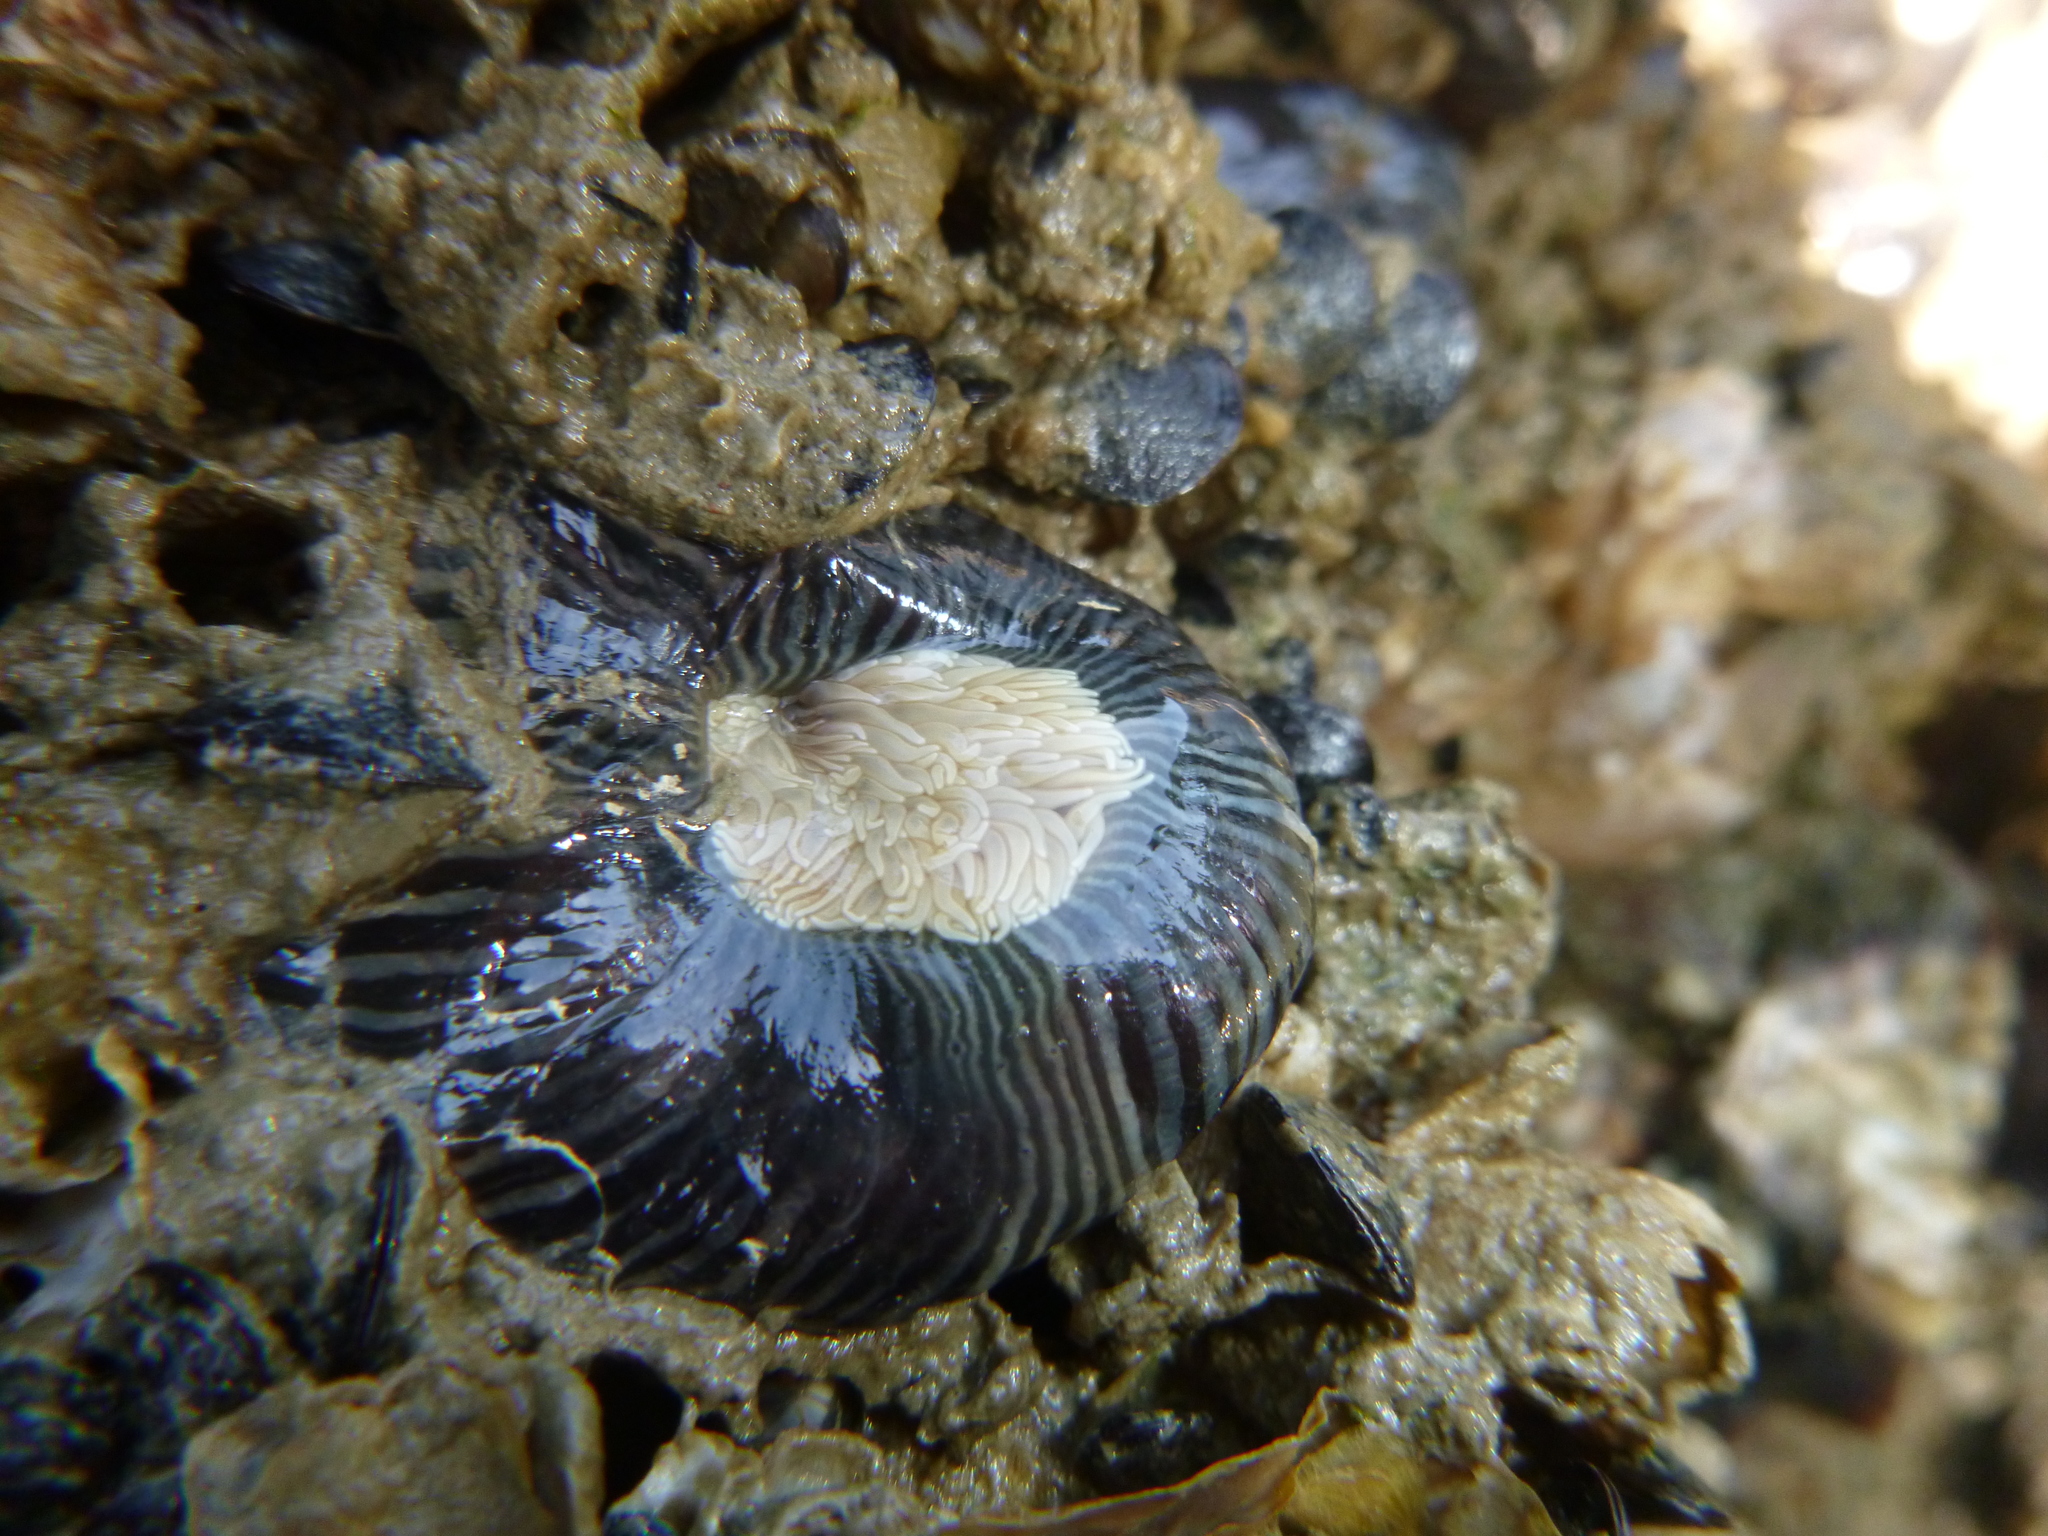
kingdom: Animalia
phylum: Cnidaria
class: Anthozoa
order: Actiniaria
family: Diadumenidae
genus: Diadumene
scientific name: Diadumene neozelanica
